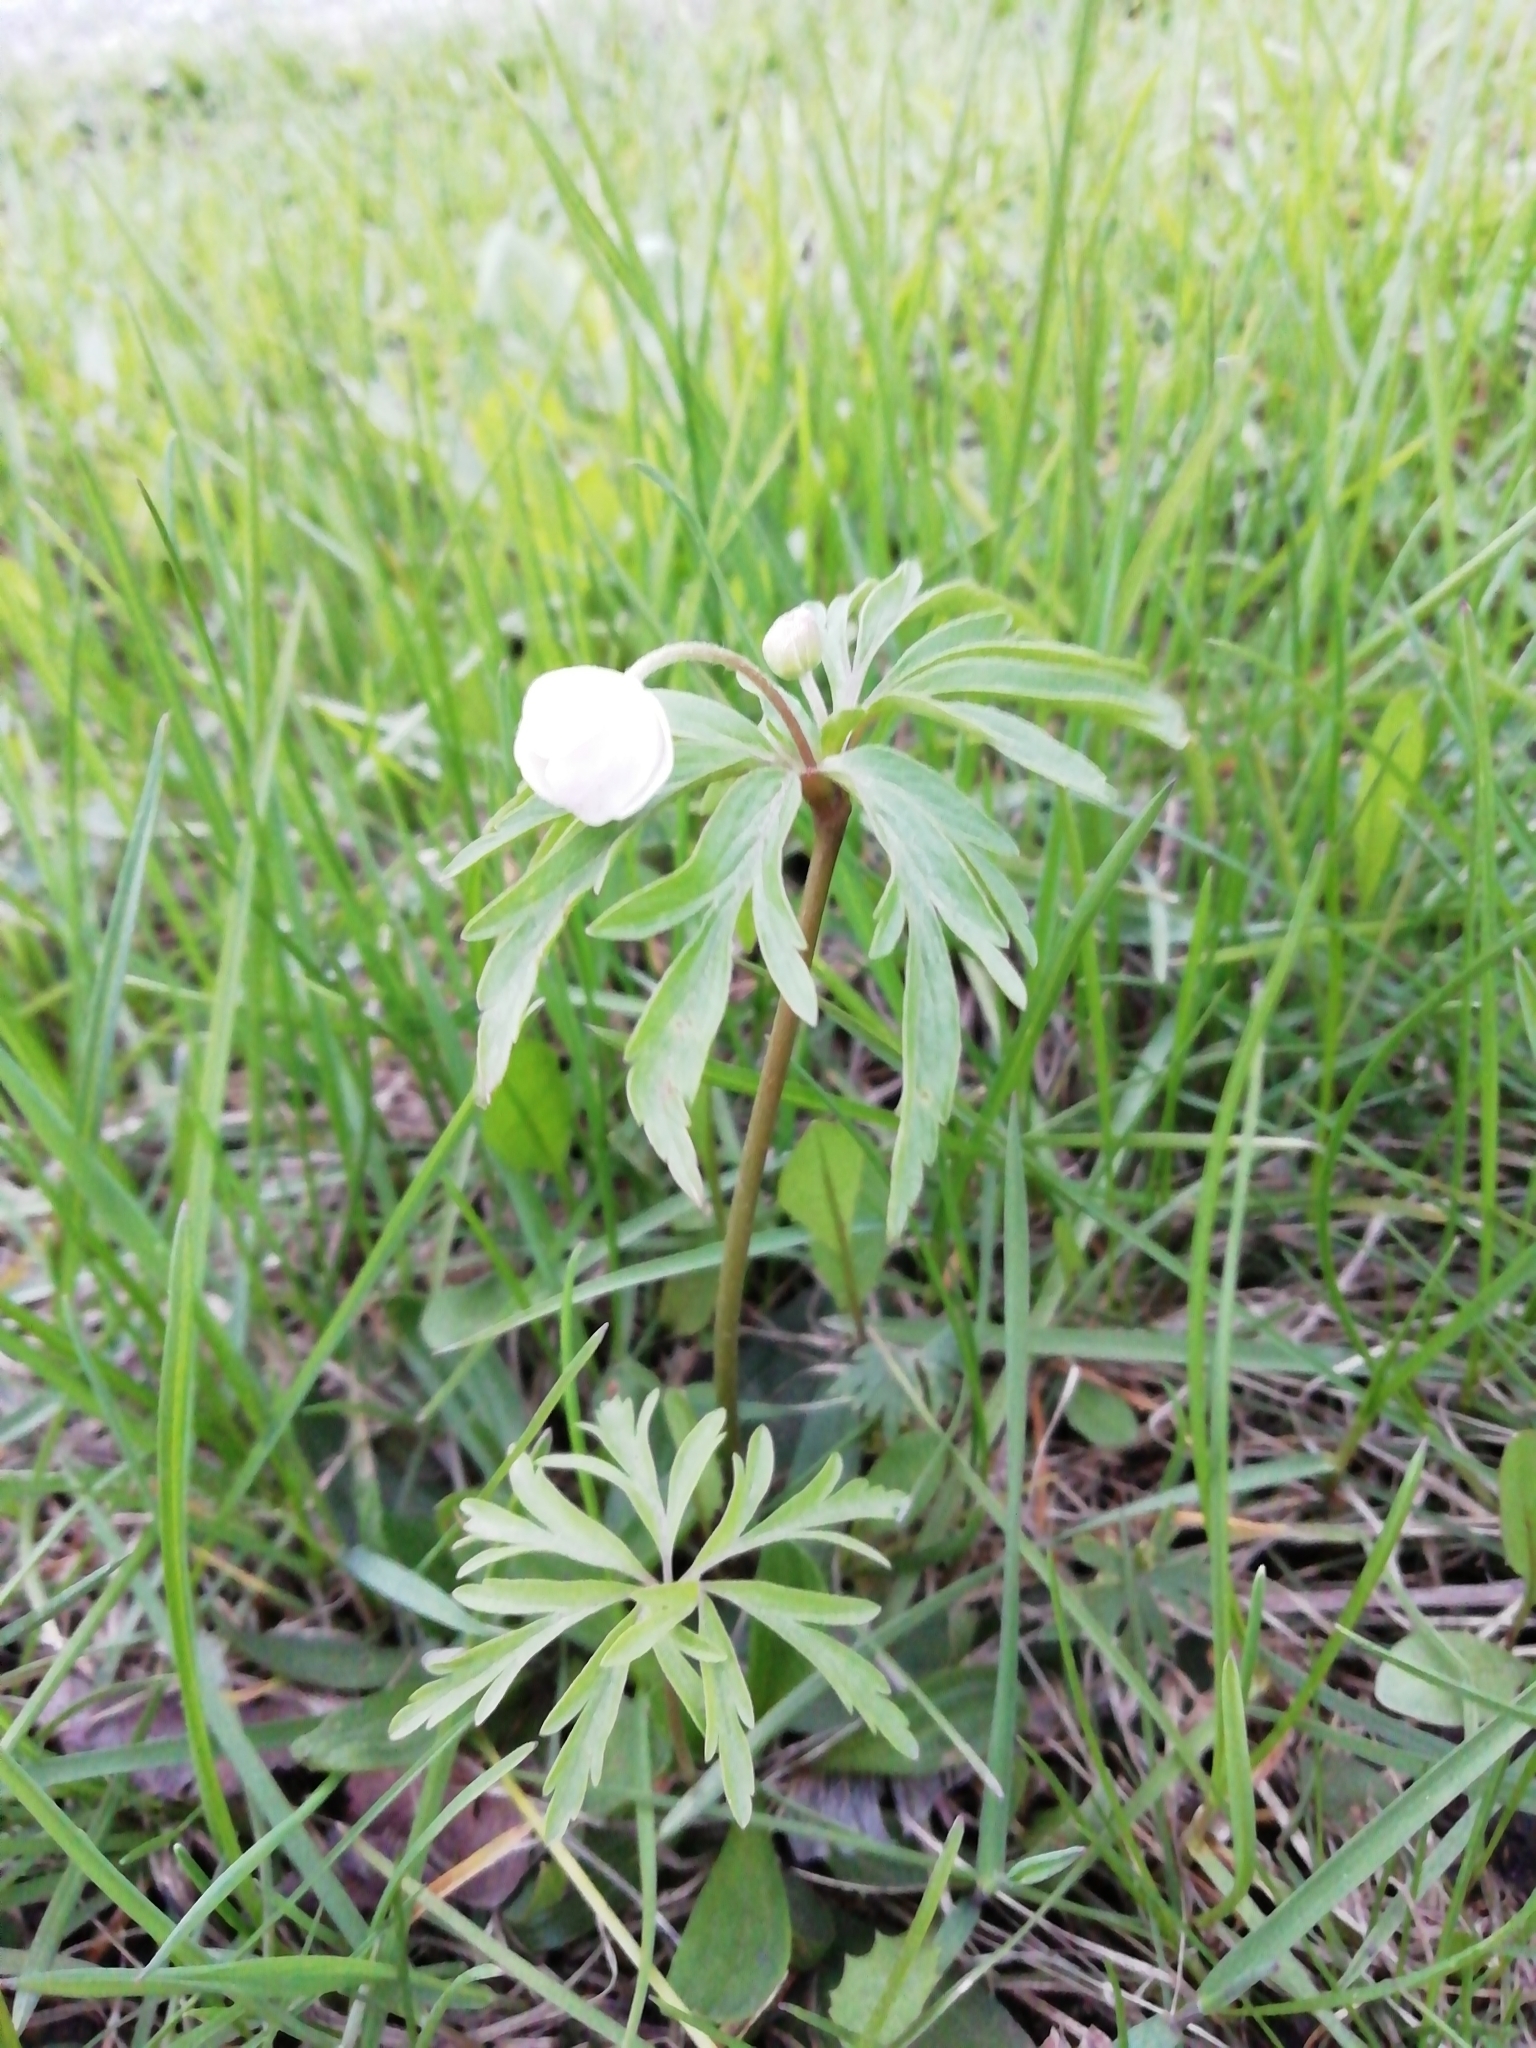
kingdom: Plantae
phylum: Tracheophyta
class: Magnoliopsida
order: Ranunculales
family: Ranunculaceae
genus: Anemone
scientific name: Anemone caerulea
